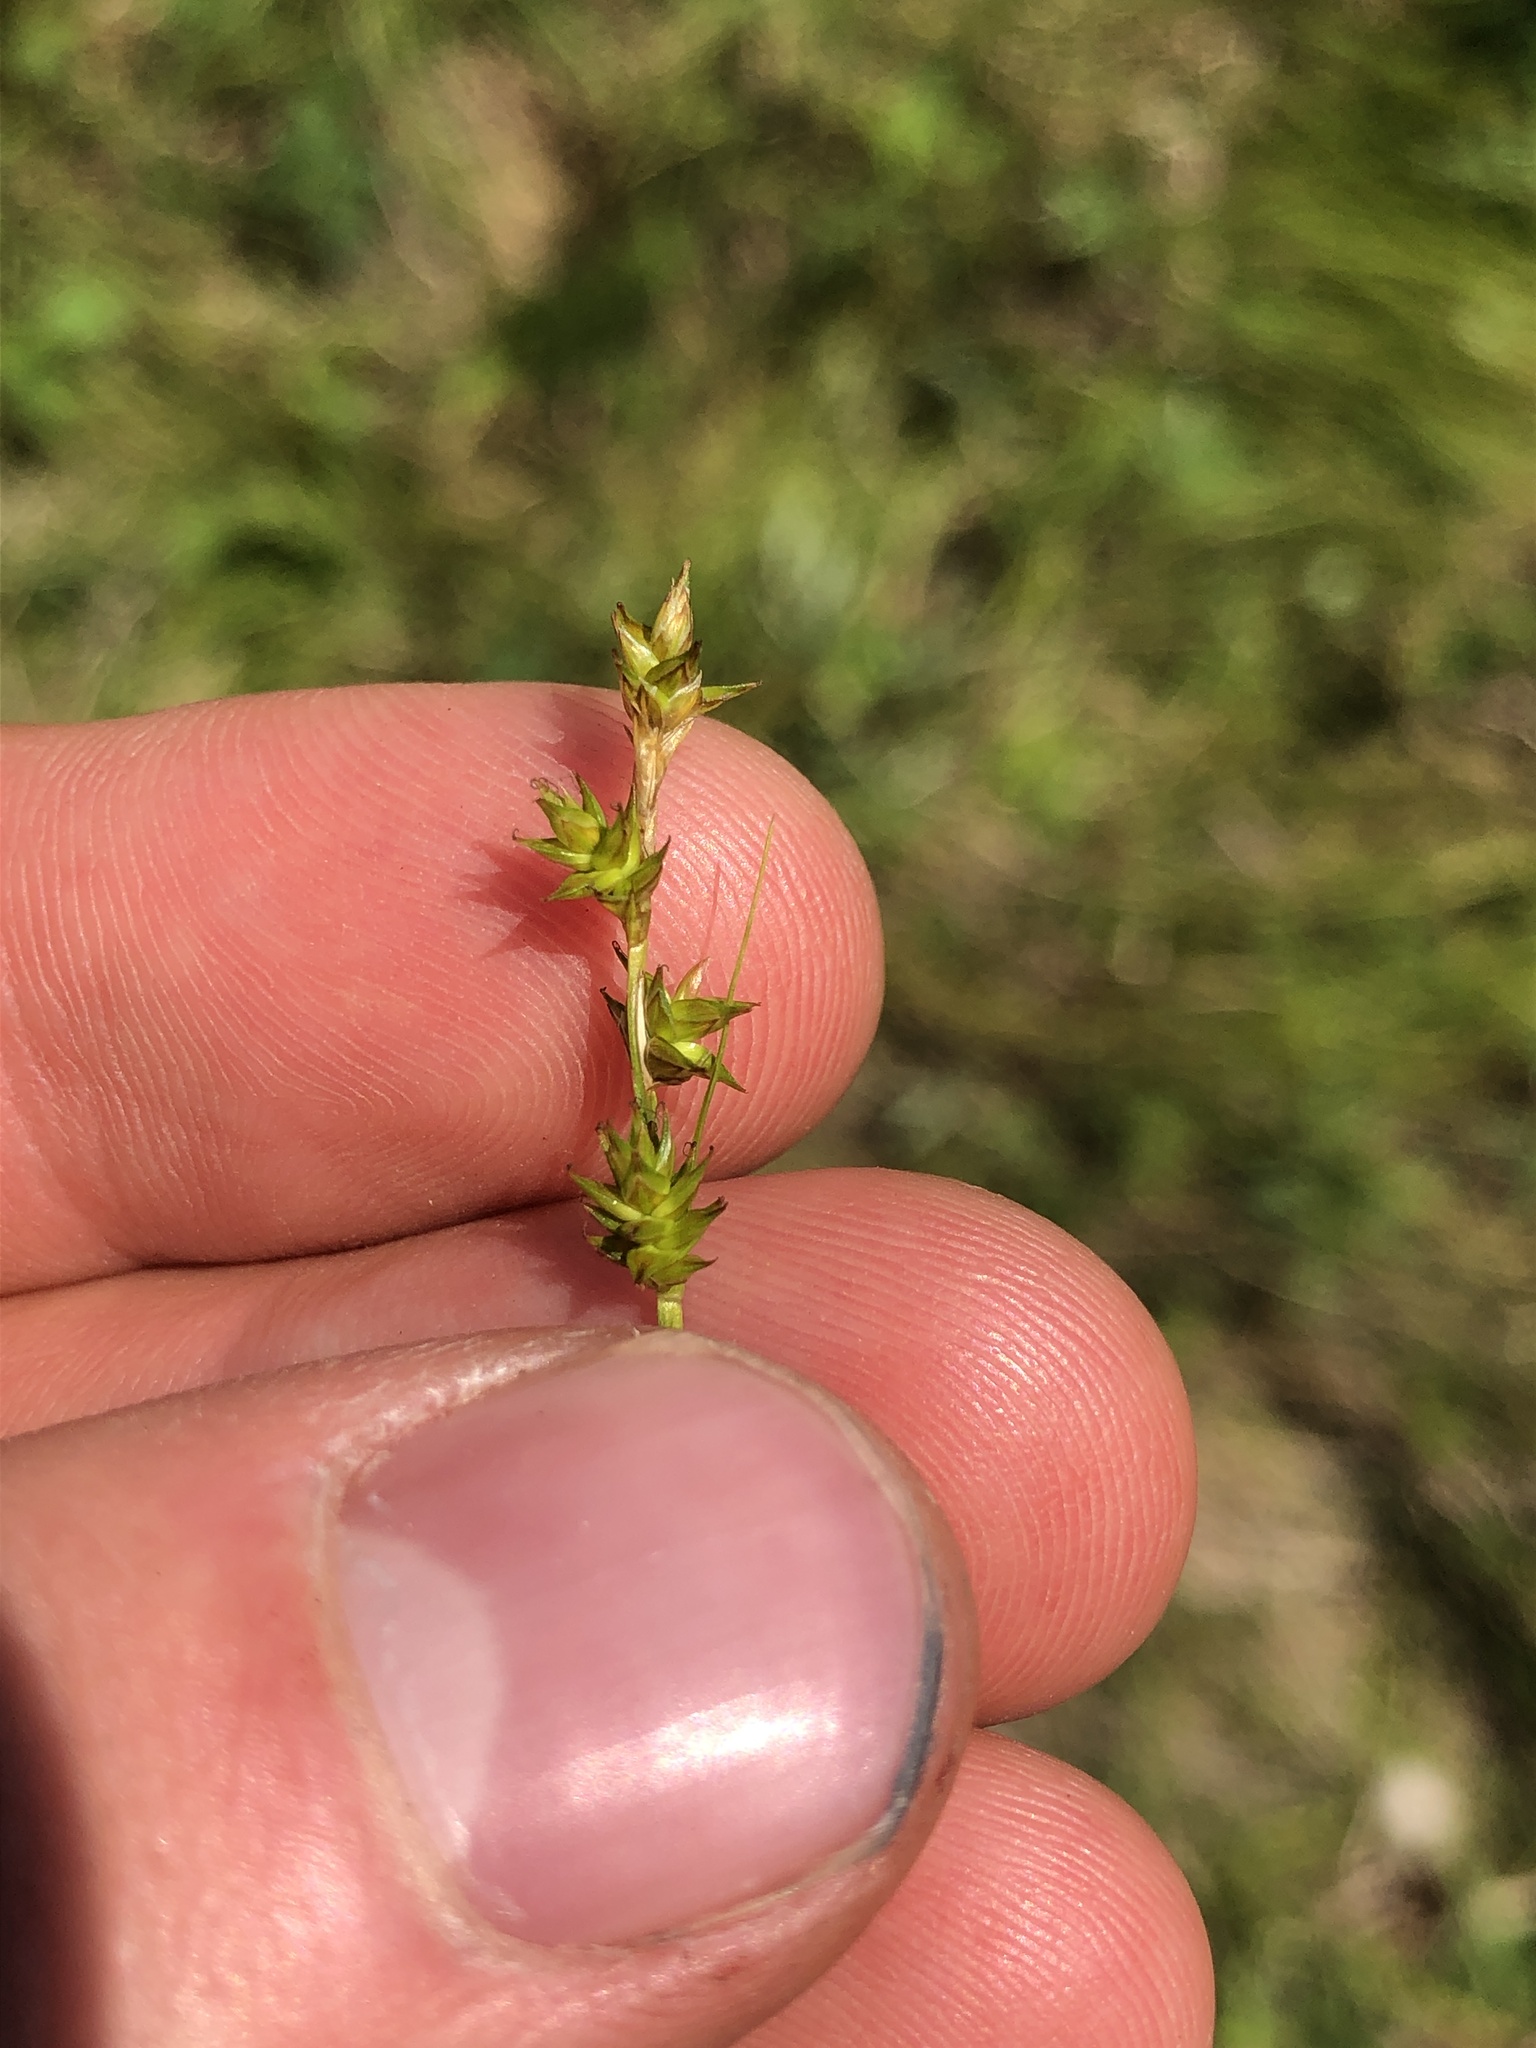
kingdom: Plantae
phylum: Tracheophyta
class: Liliopsida
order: Poales
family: Cyperaceae
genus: Carex
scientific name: Carex echinata
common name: Star sedge
